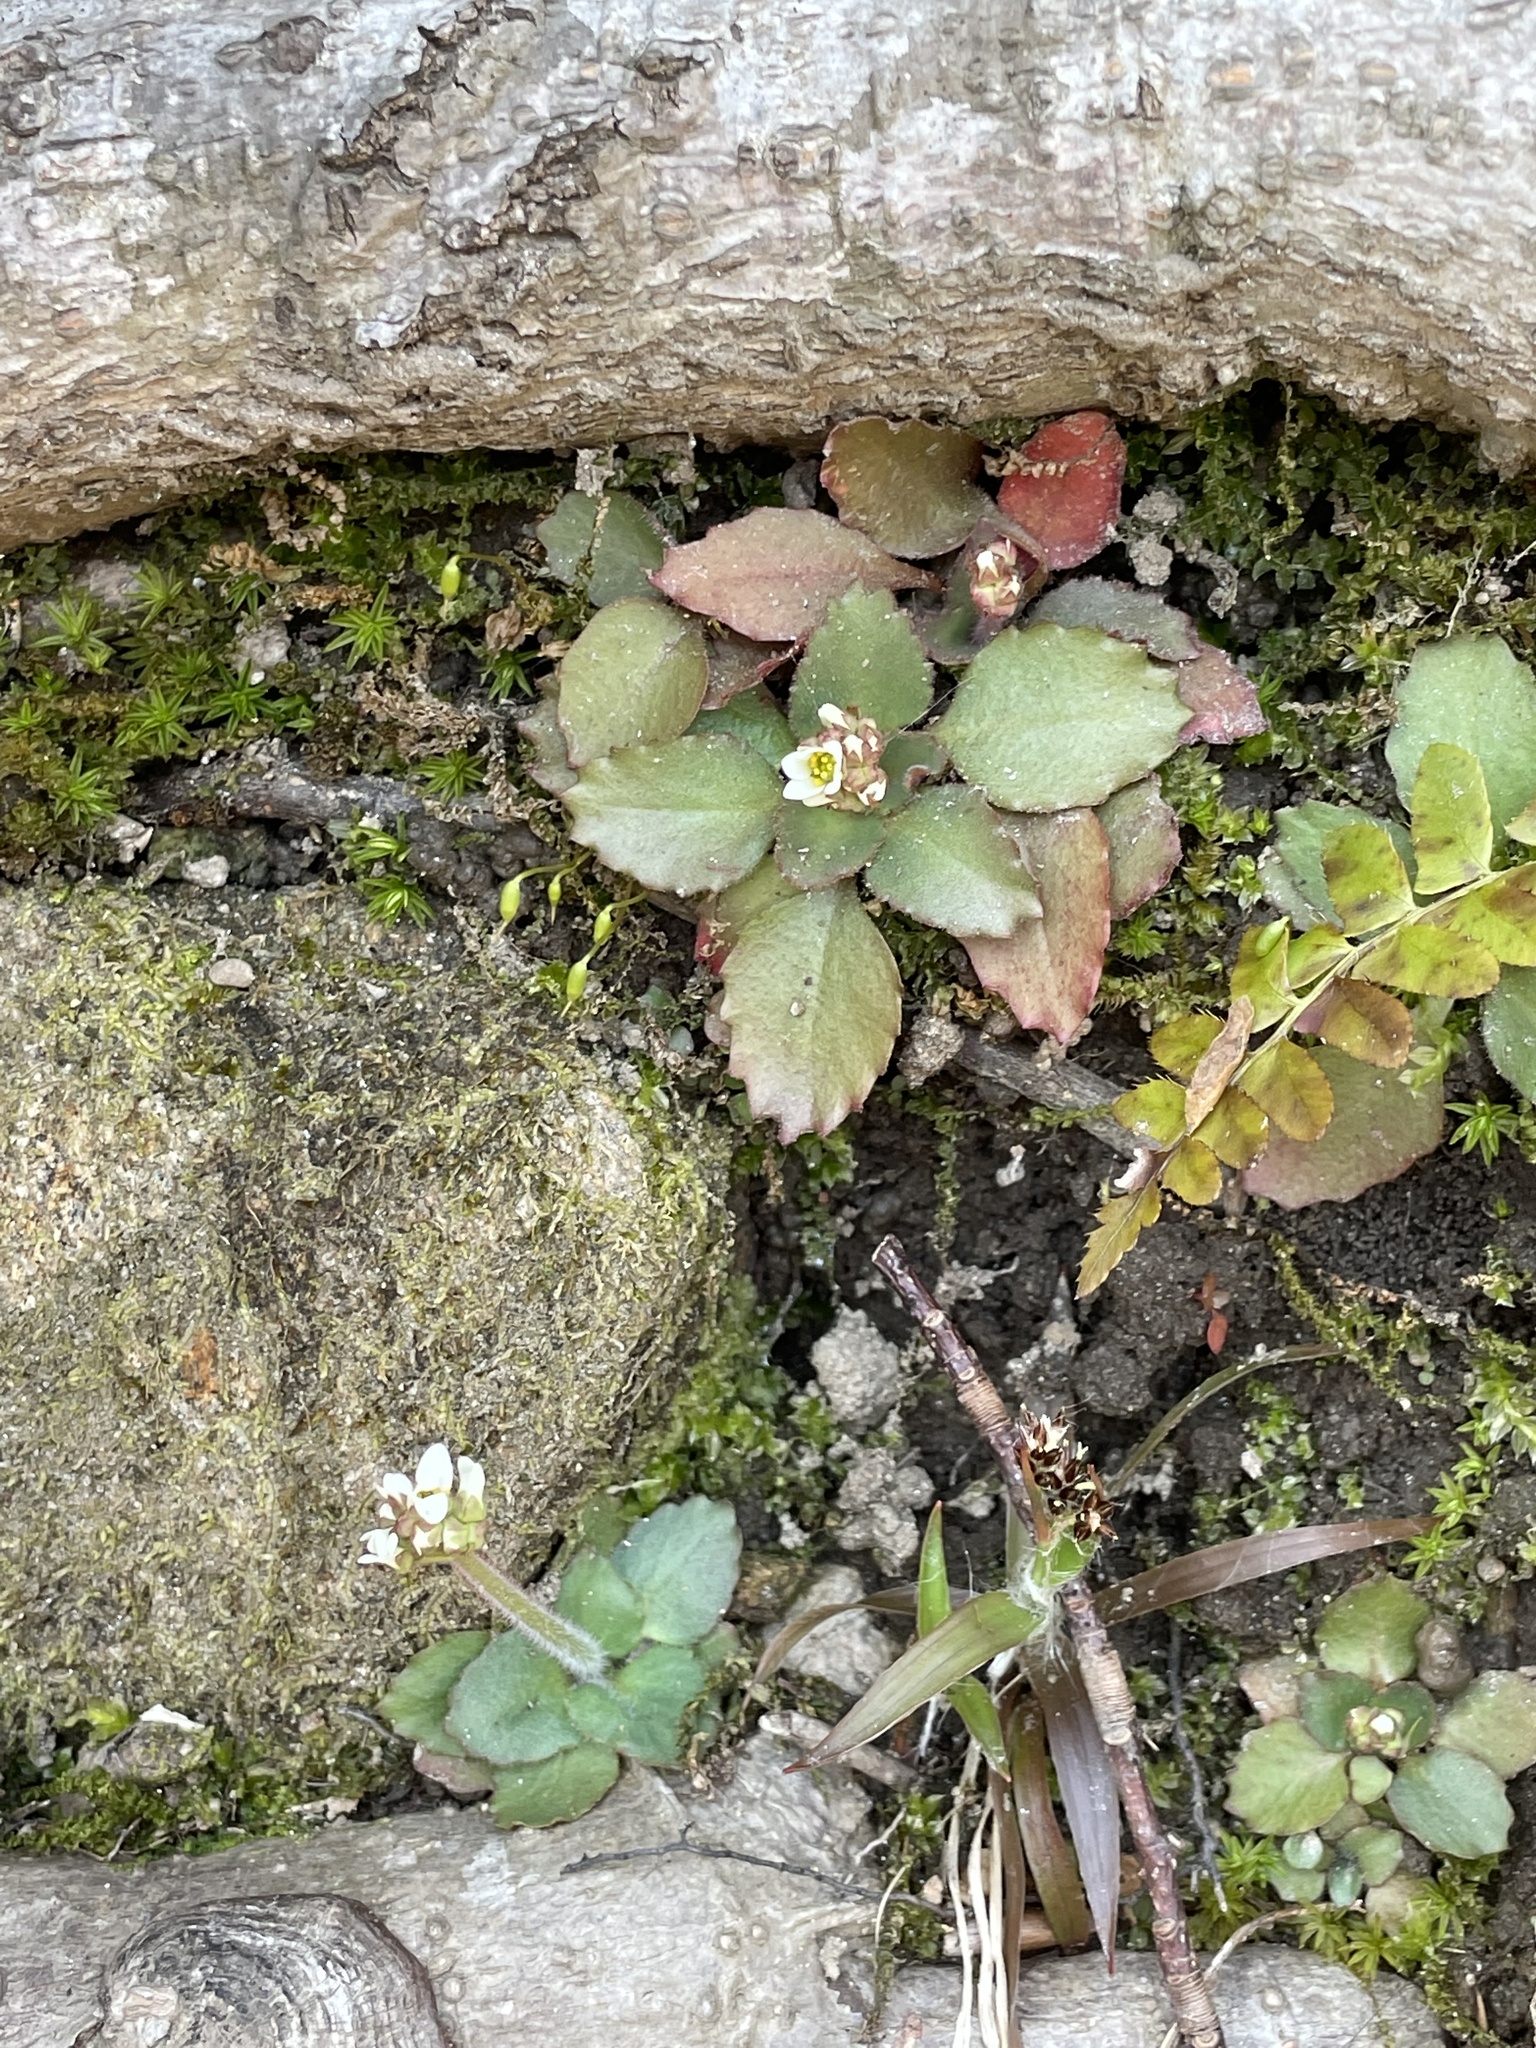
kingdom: Plantae
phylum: Tracheophyta
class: Magnoliopsida
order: Saxifragales
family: Saxifragaceae
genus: Micranthes
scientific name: Micranthes virginiensis
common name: Early saxifrage
